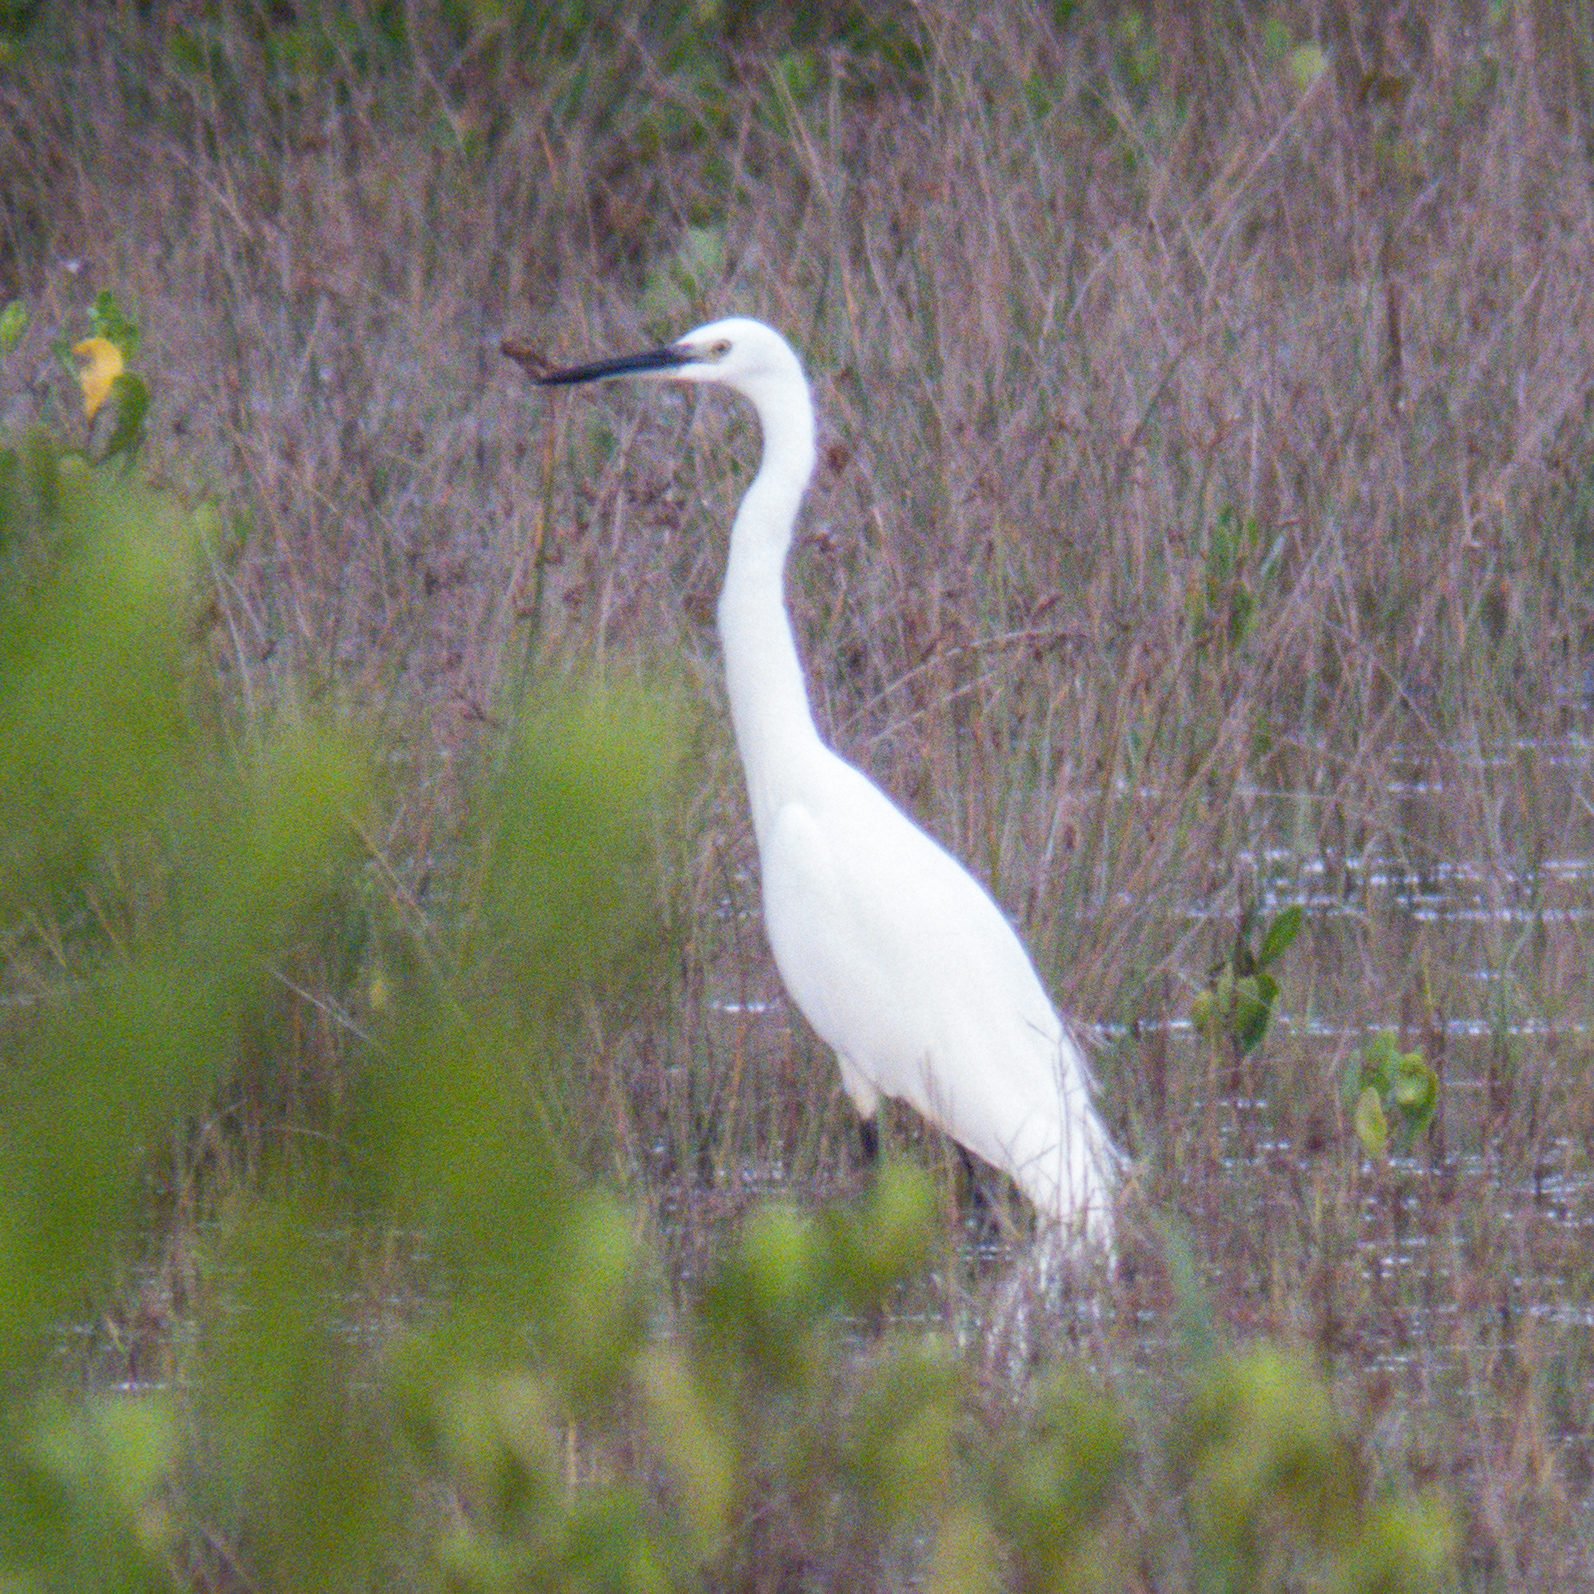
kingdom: Animalia
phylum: Chordata
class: Aves
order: Pelecaniformes
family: Ardeidae
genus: Egretta
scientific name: Egretta garzetta
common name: Little egret
